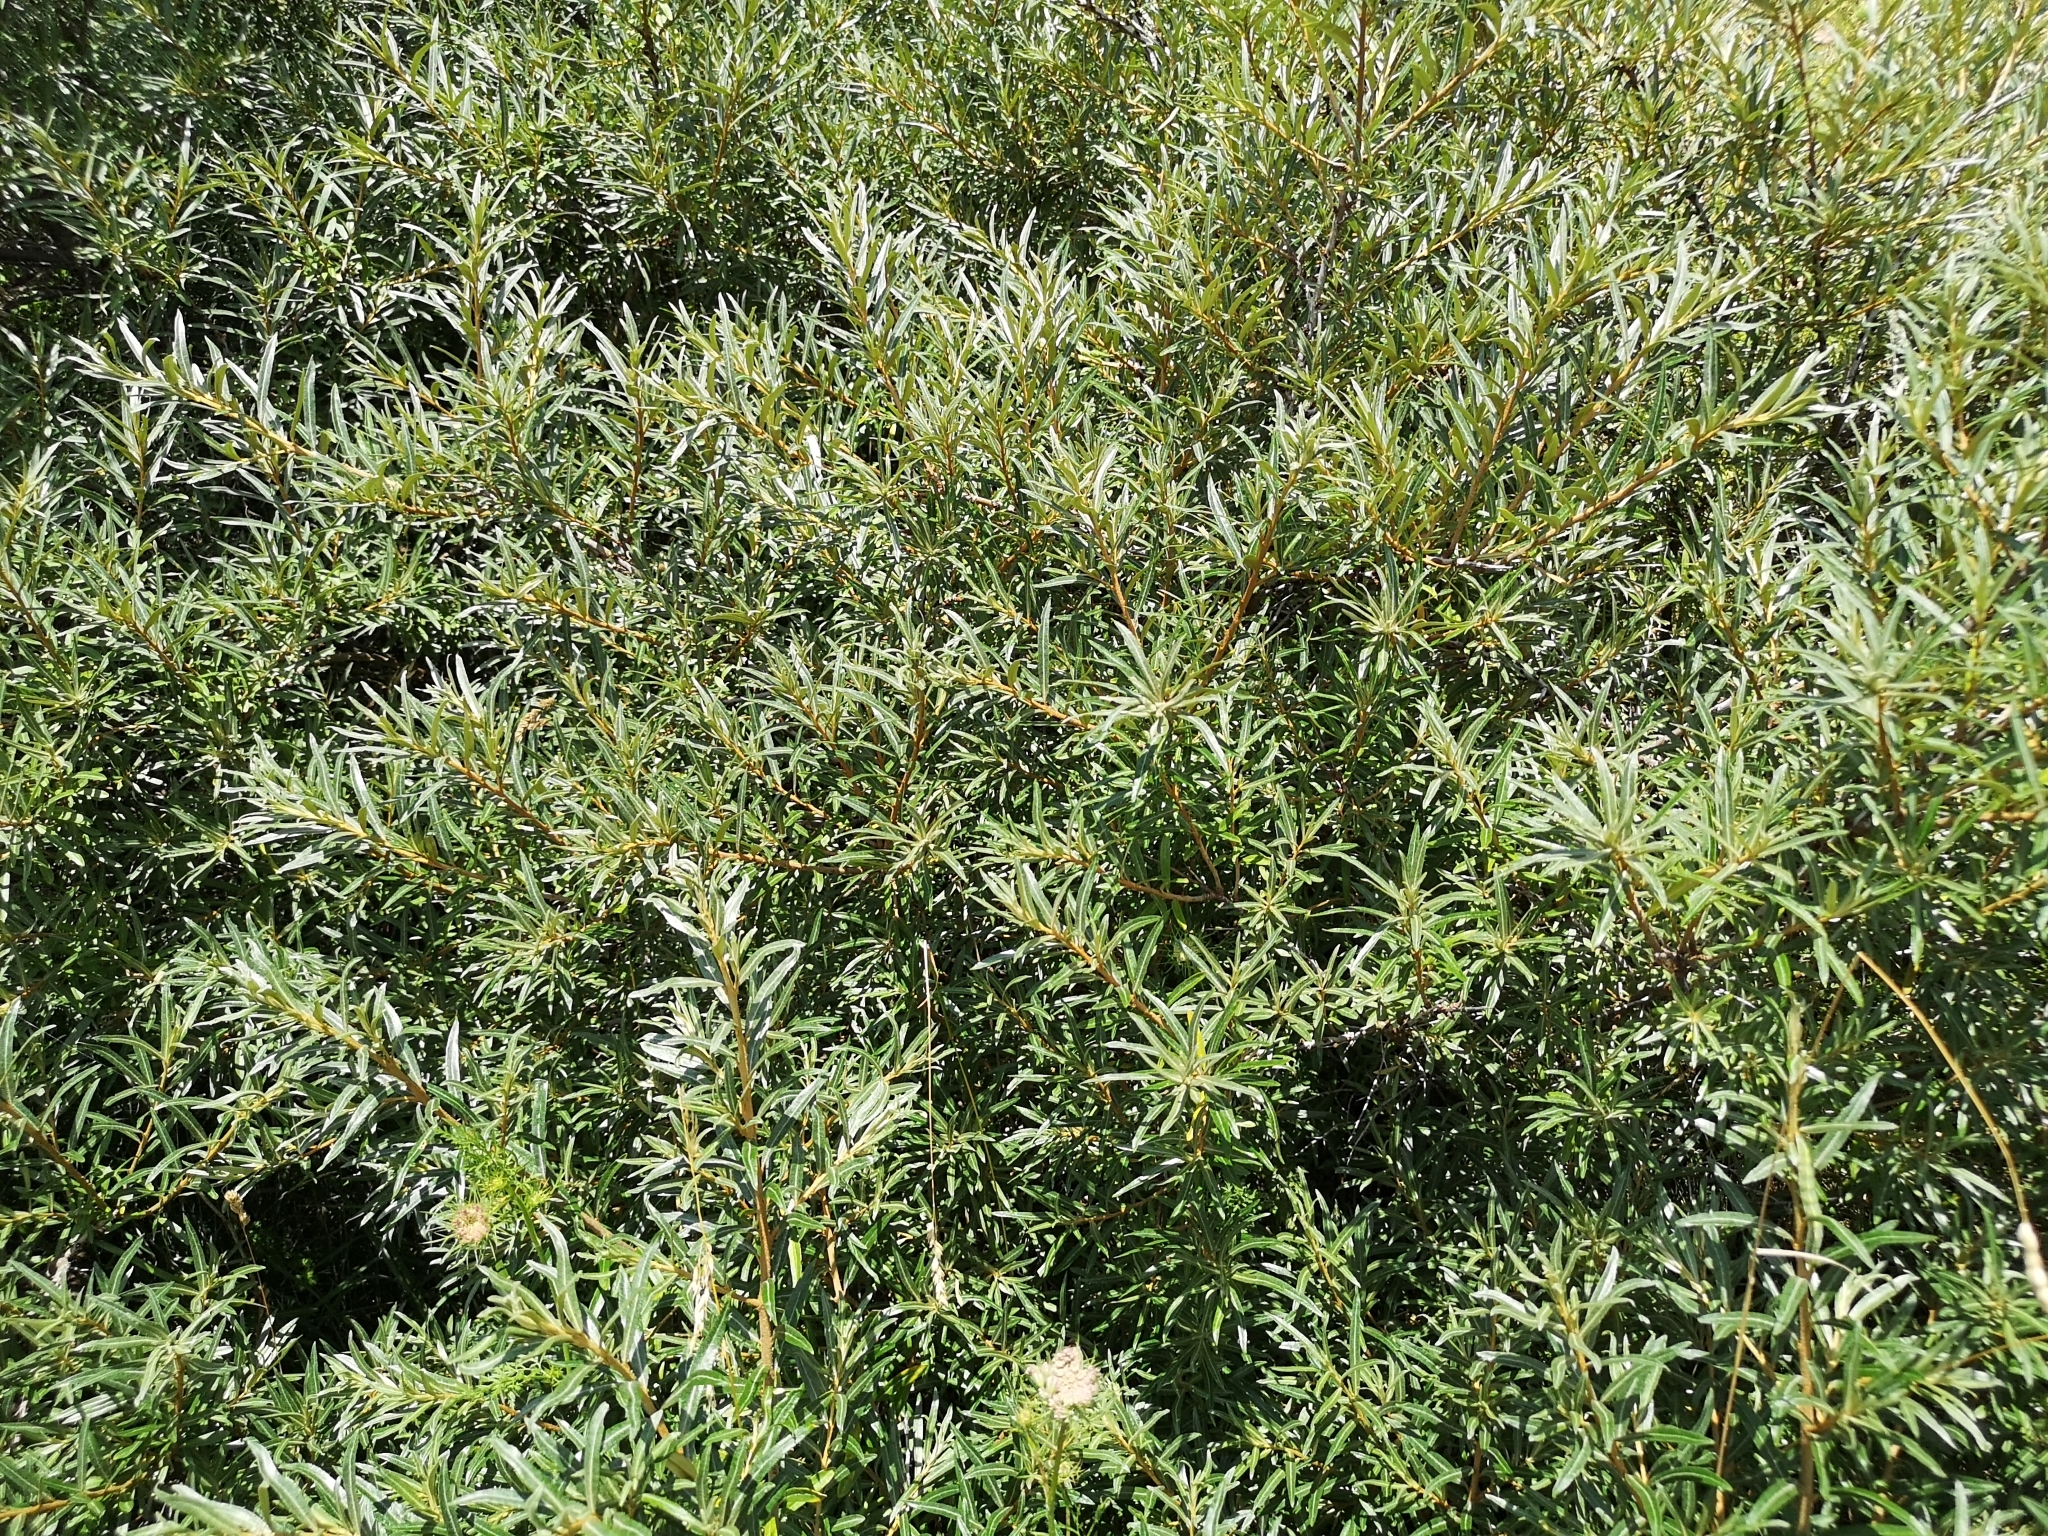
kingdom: Plantae
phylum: Tracheophyta
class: Magnoliopsida
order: Rosales
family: Elaeagnaceae
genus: Hippophae
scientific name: Hippophae rhamnoides
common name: Sea-buckthorn
